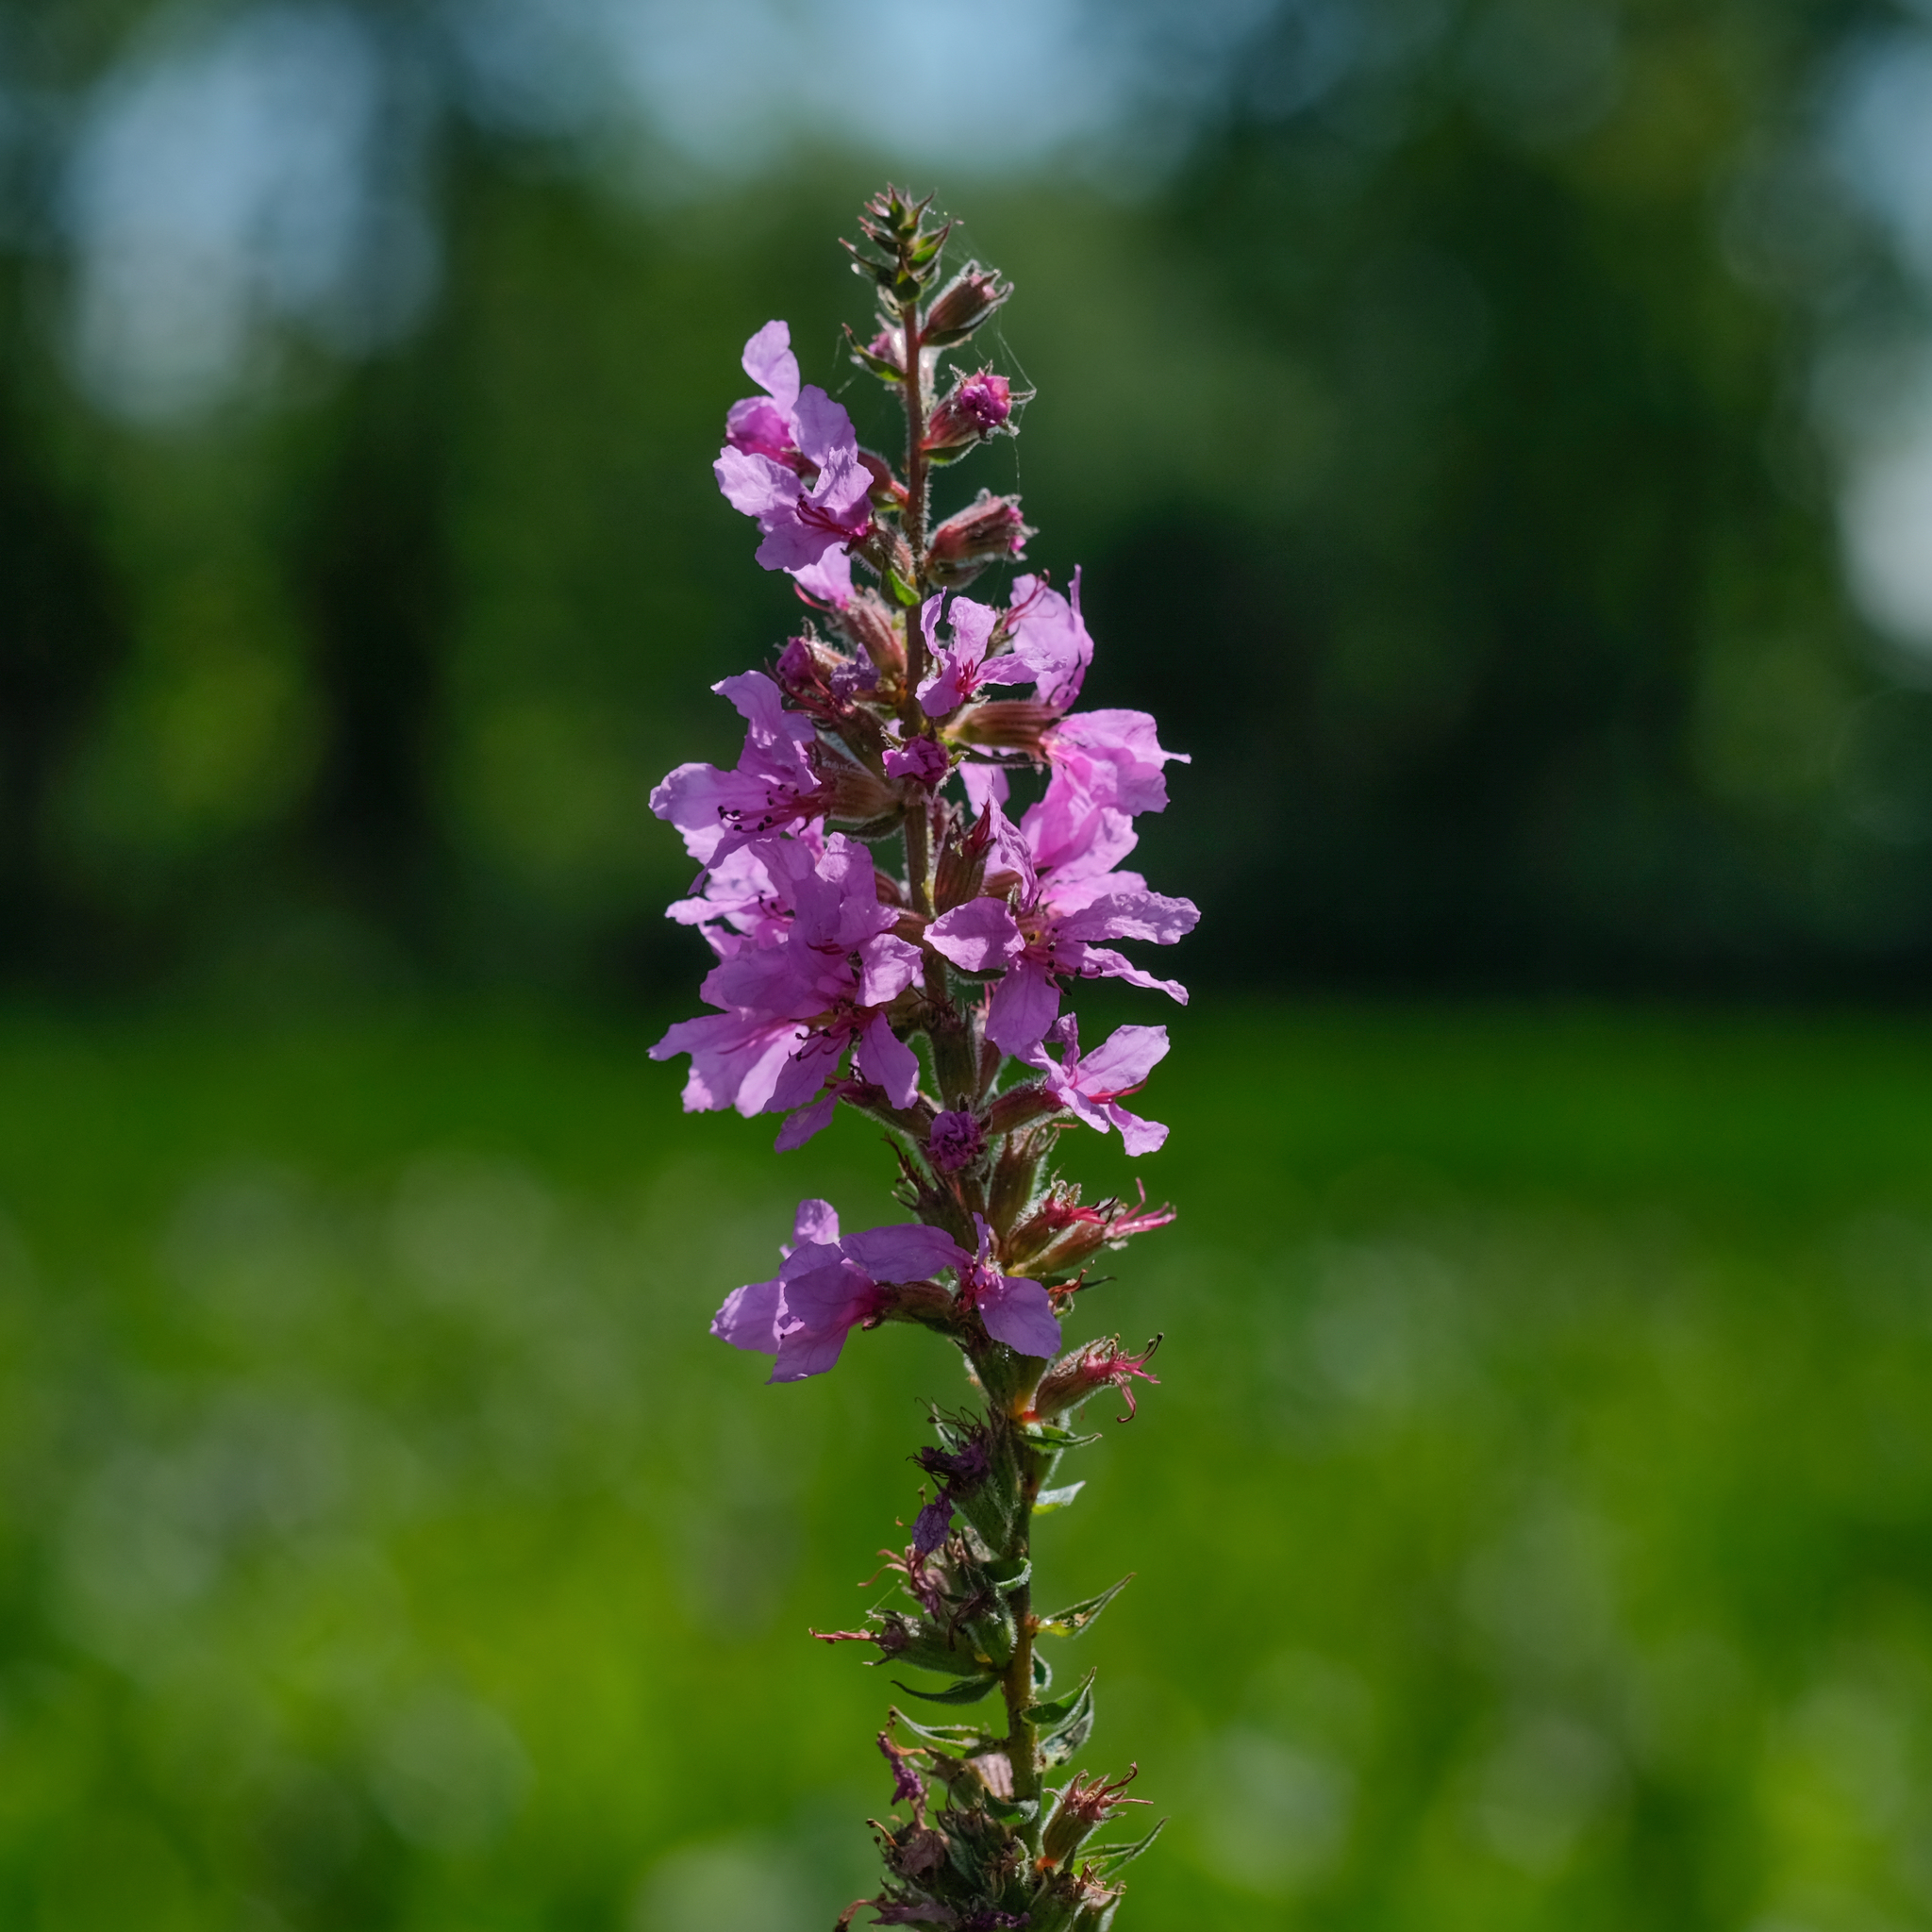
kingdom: Plantae
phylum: Tracheophyta
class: Magnoliopsida
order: Myrtales
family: Lythraceae
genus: Lythrum
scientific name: Lythrum salicaria
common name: Purple loosestrife
